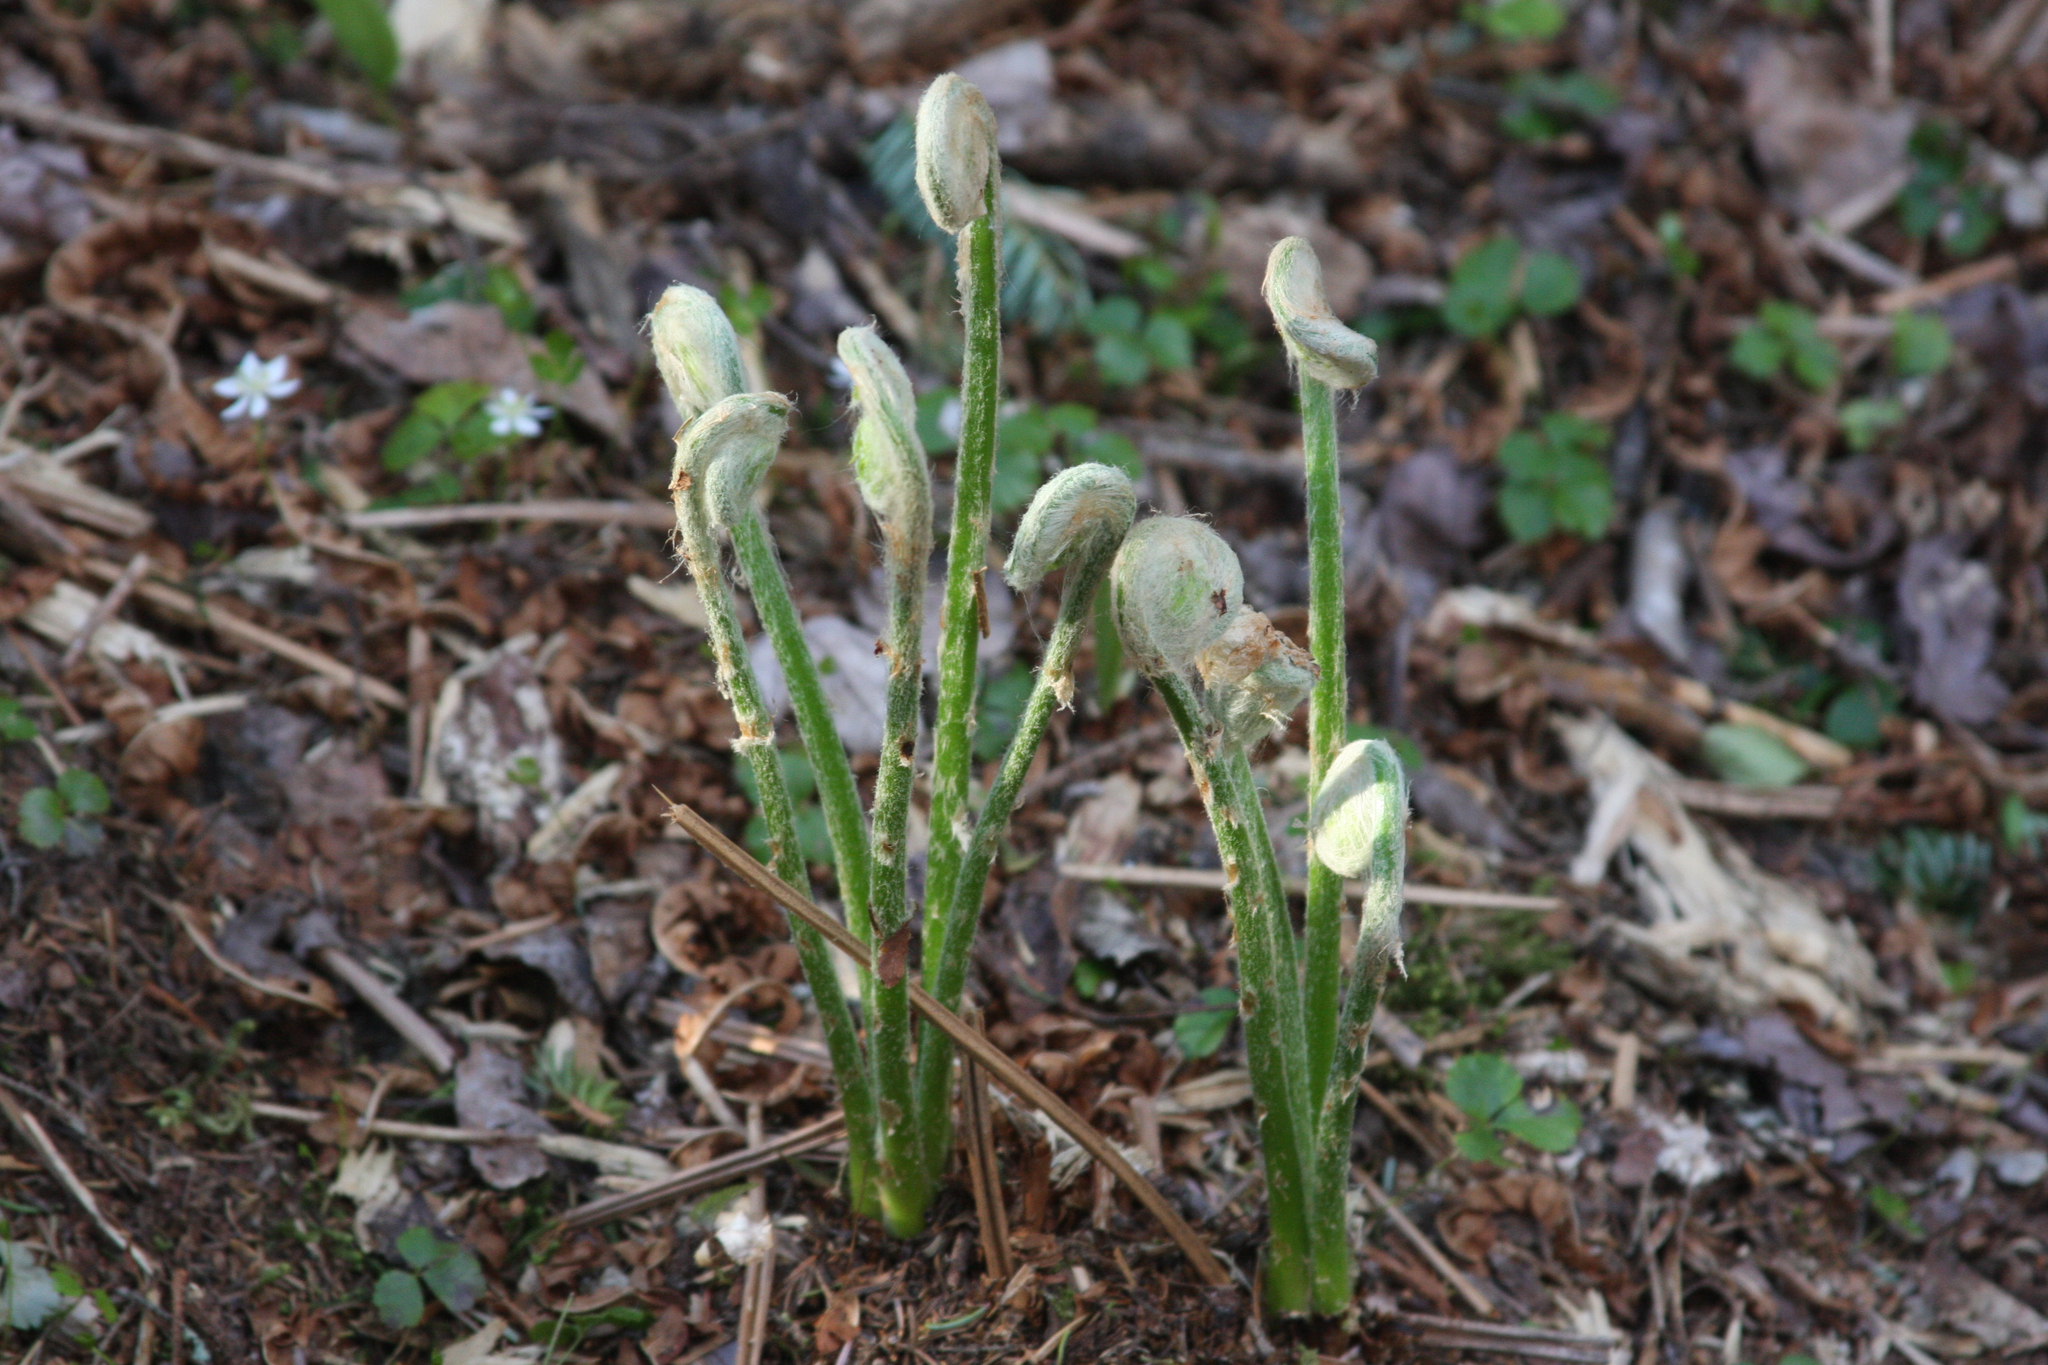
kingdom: Plantae
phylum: Tracheophyta
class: Polypodiopsida
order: Osmundales
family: Osmundaceae
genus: Claytosmunda
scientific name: Claytosmunda claytoniana
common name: Clayton's fern
